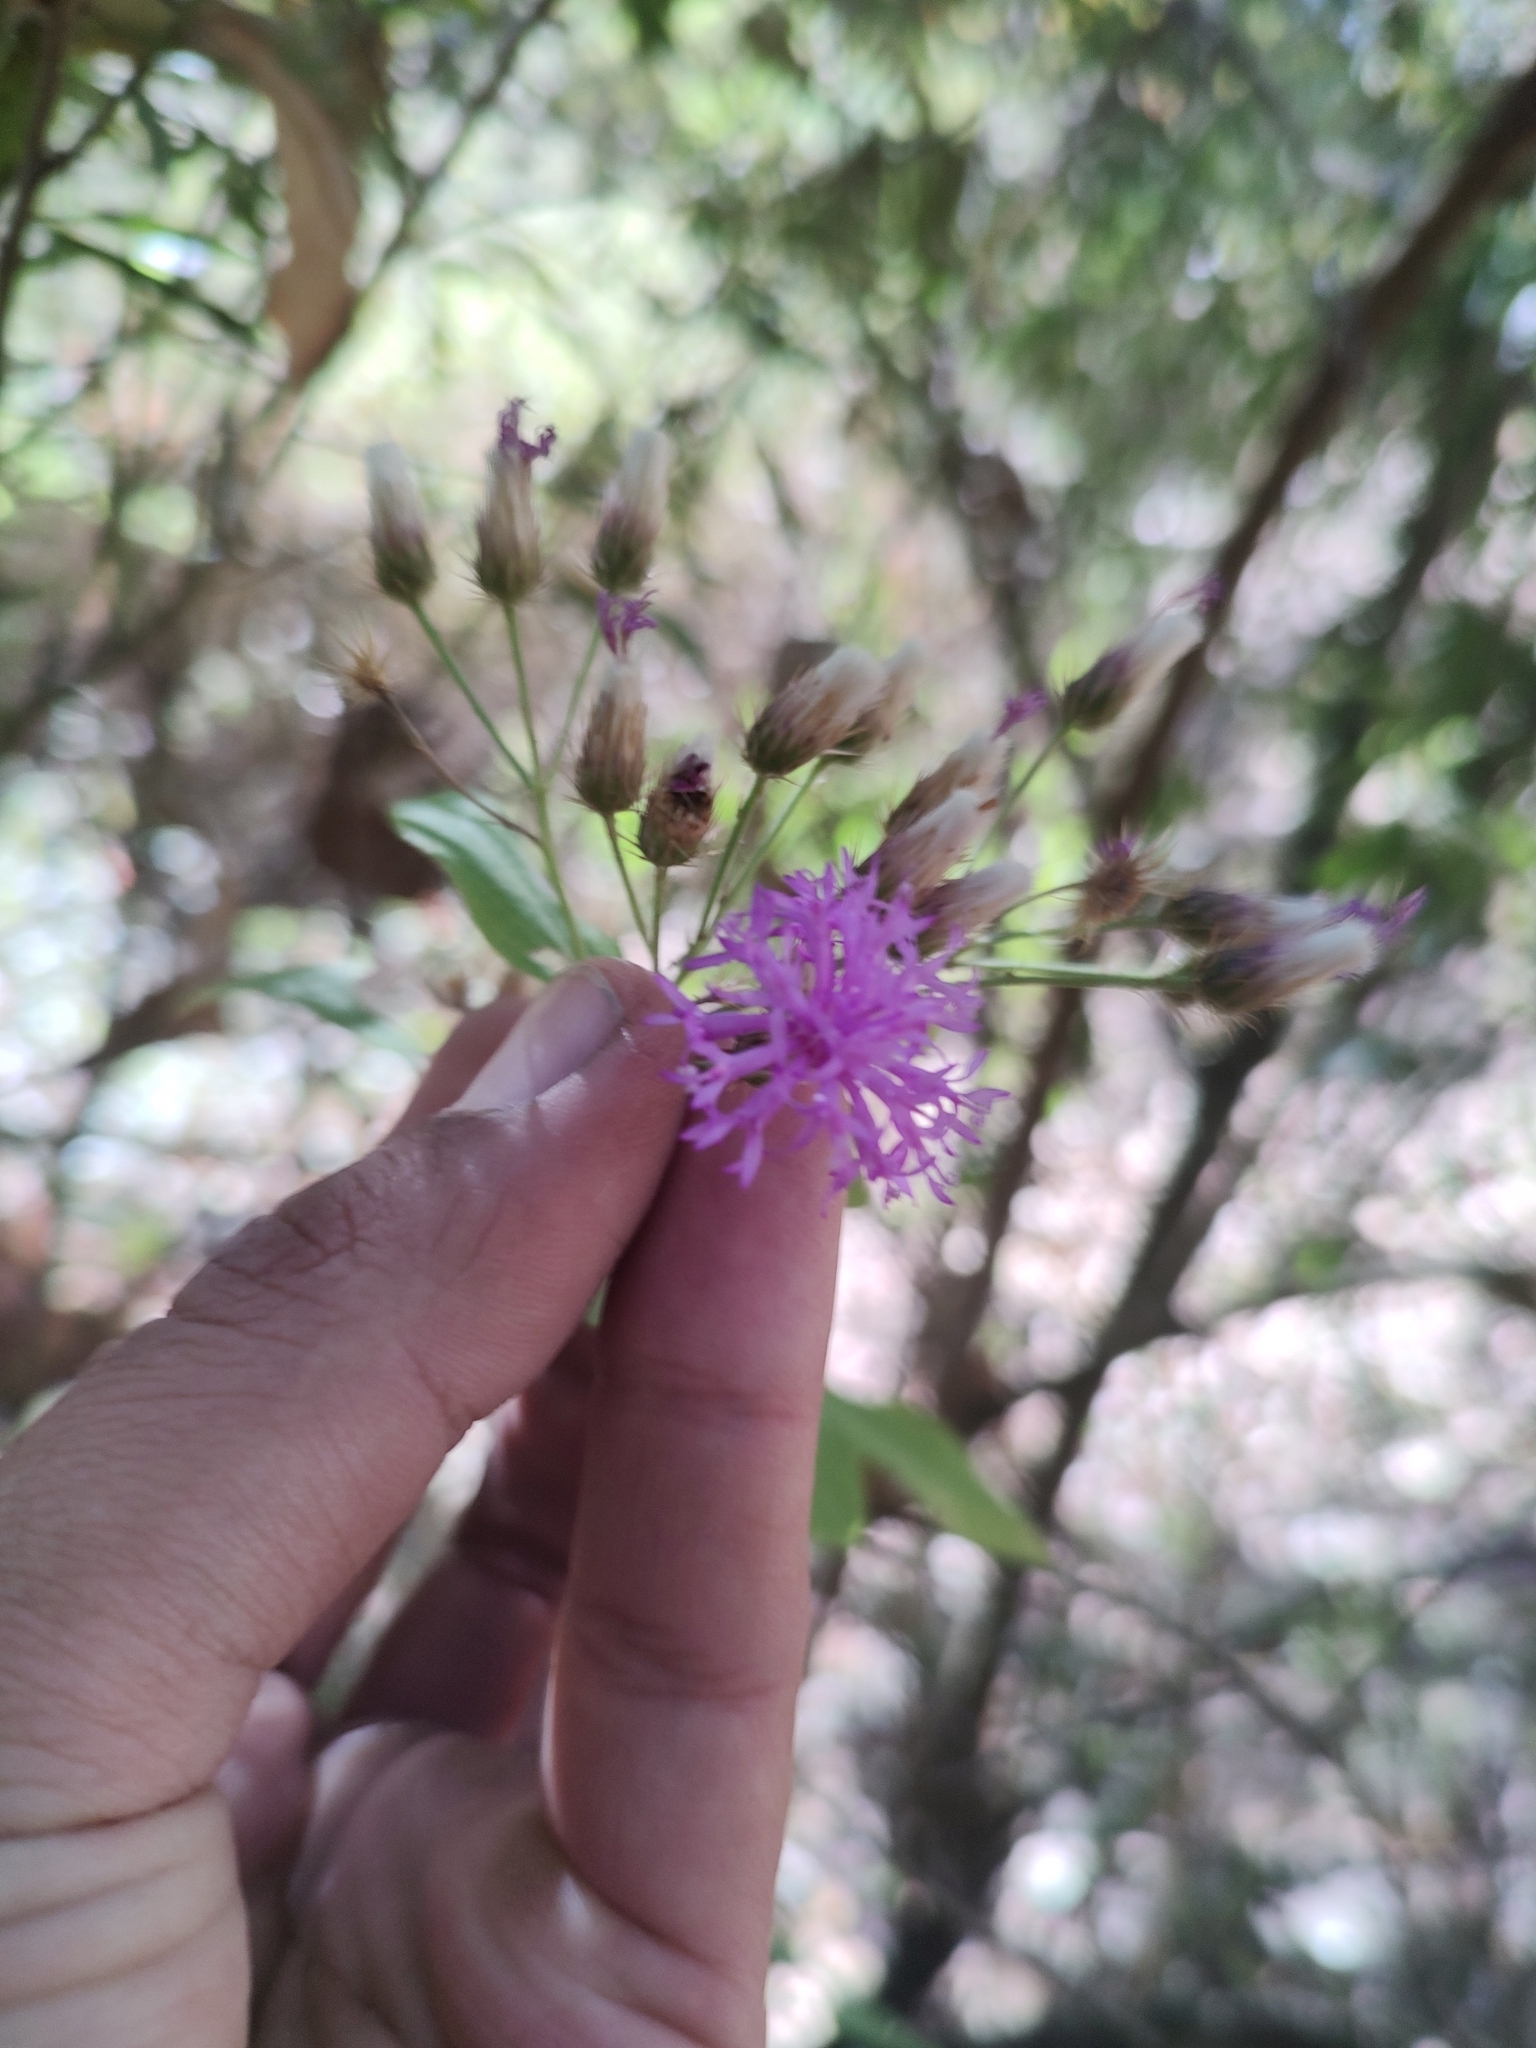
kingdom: Plantae
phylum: Tracheophyta
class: Magnoliopsida
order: Asterales
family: Asteraceae
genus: Vernonia
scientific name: Vernonia bealliae
